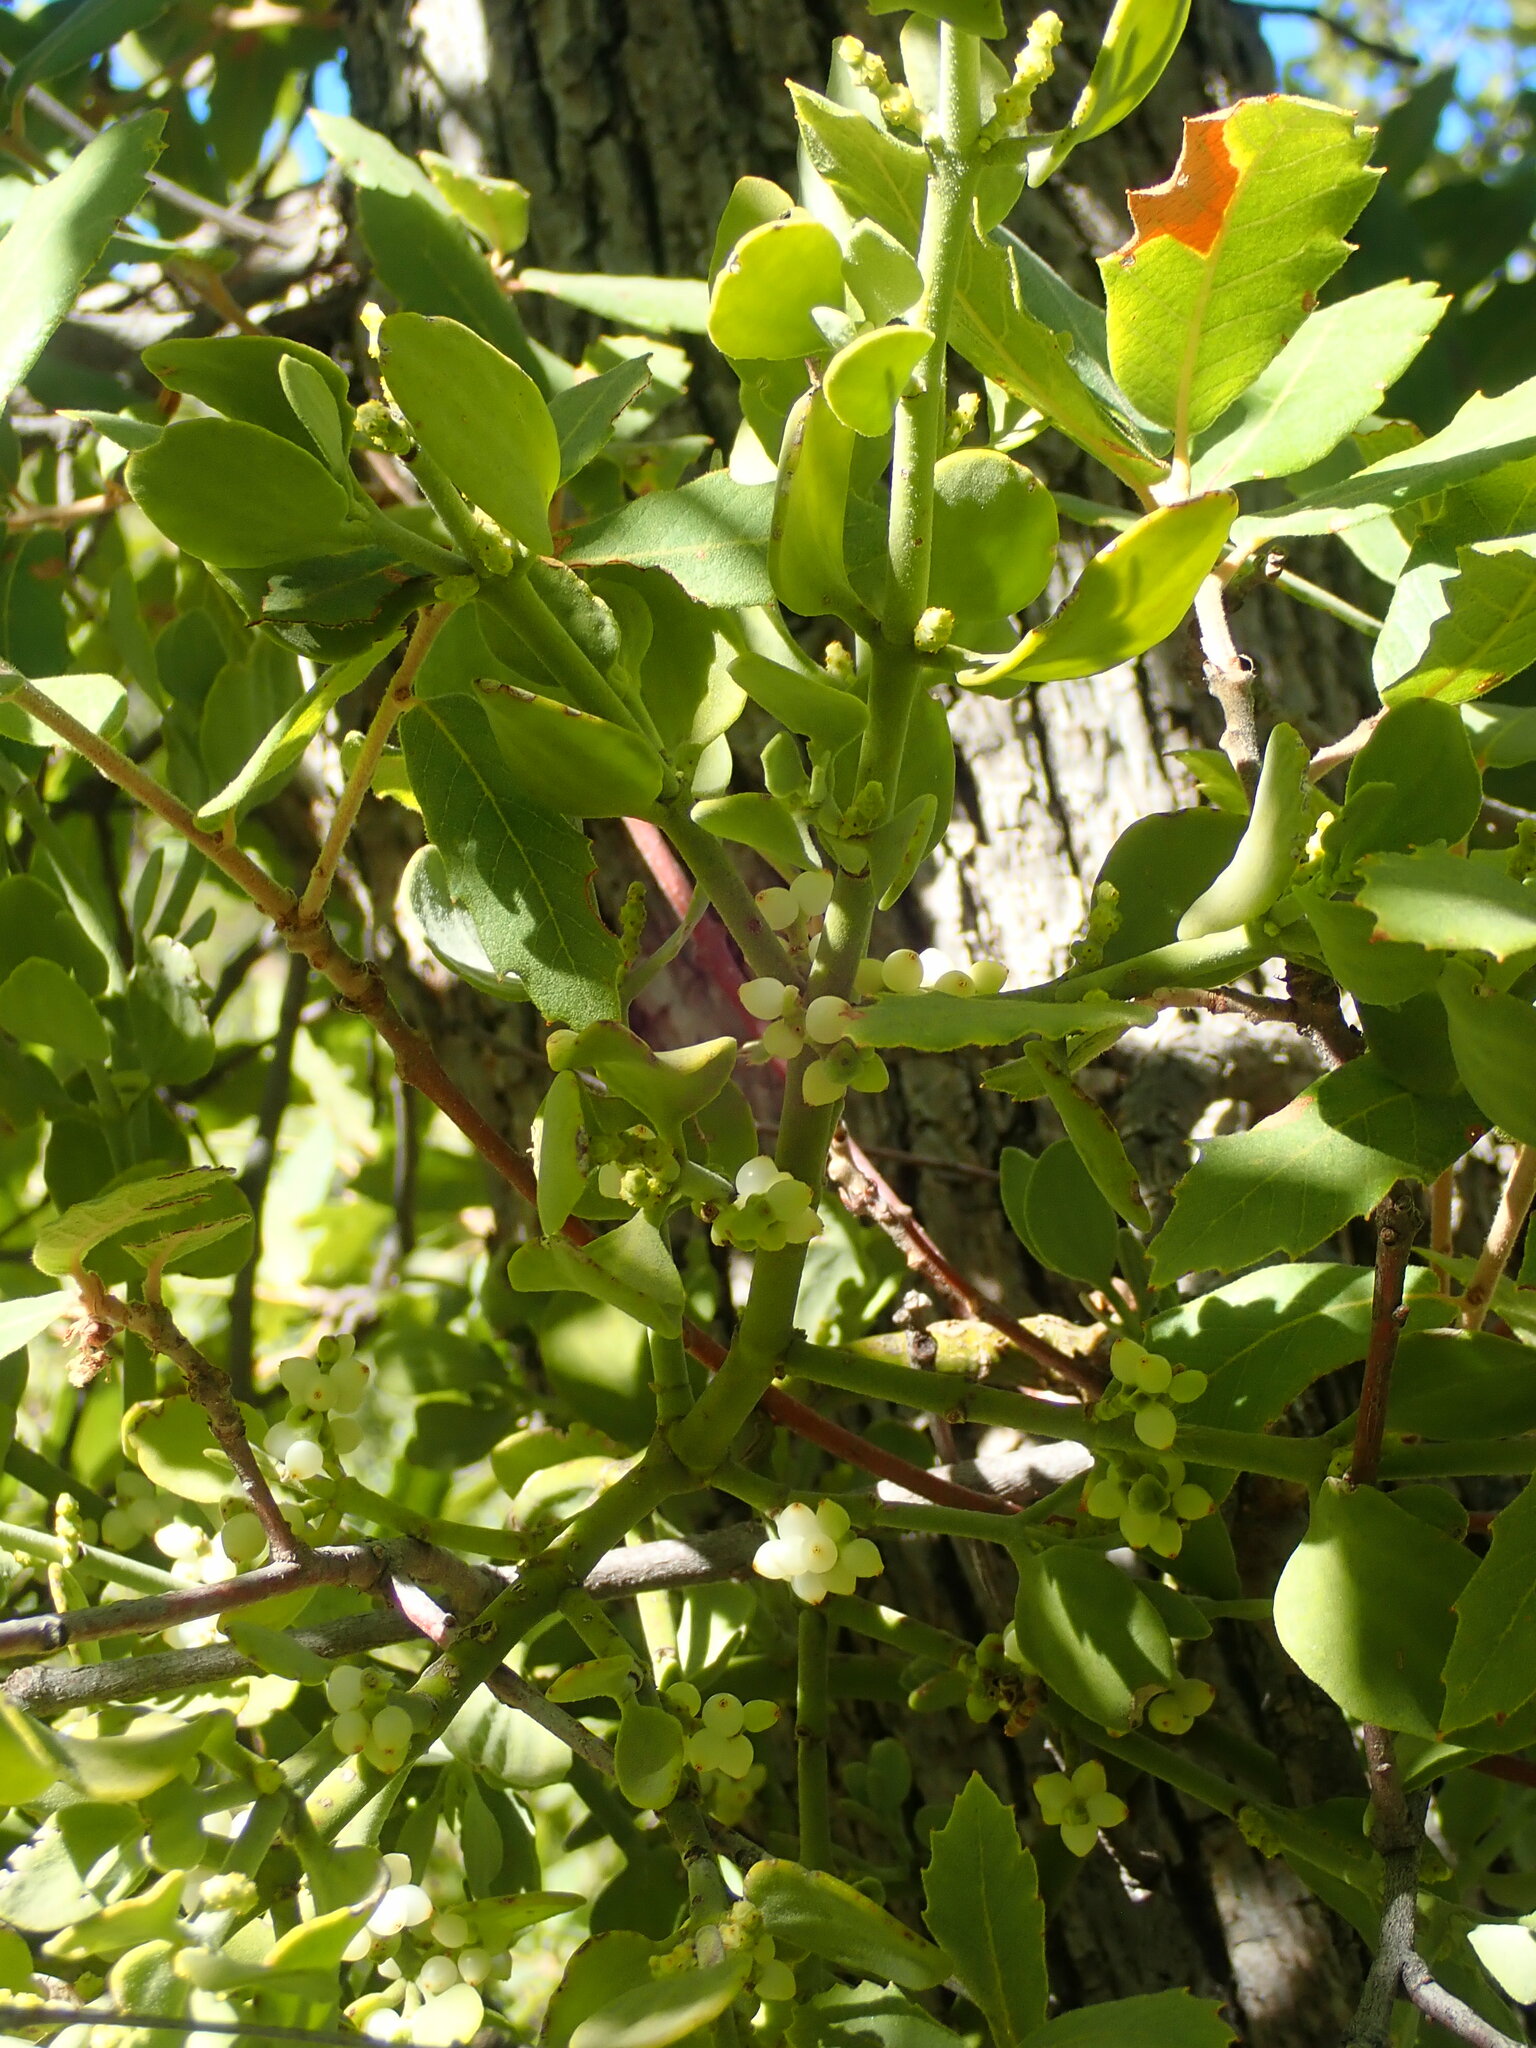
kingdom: Plantae
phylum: Tracheophyta
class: Magnoliopsida
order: Santalales
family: Viscaceae
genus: Phoradendron
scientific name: Phoradendron coryae
